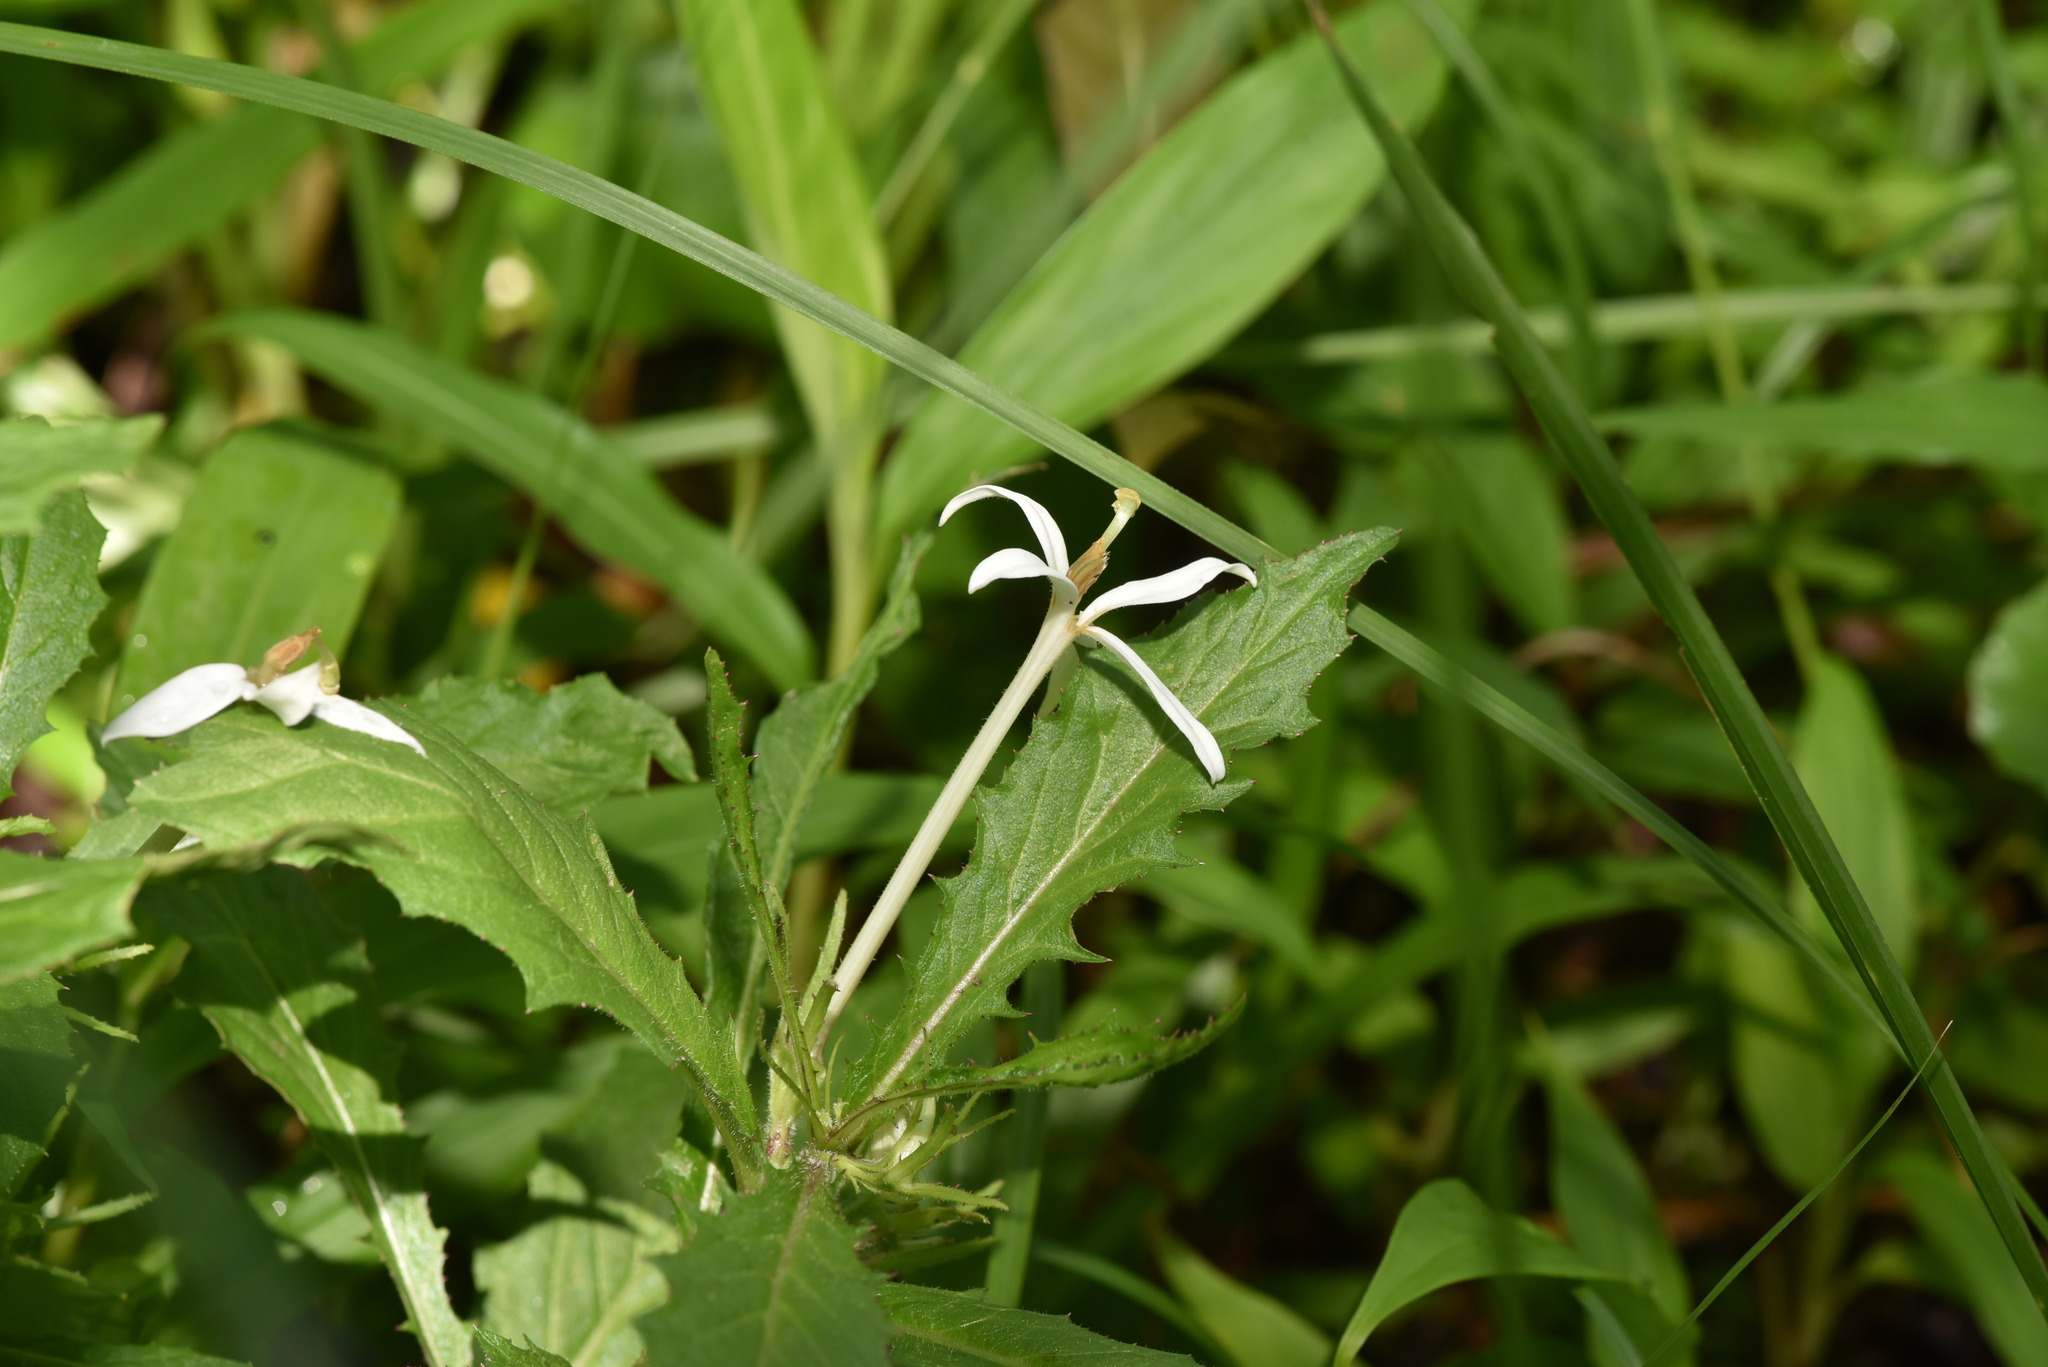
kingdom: Plantae
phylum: Tracheophyta
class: Magnoliopsida
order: Asterales
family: Campanulaceae
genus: Hippobroma
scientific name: Hippobroma longiflora
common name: Madamfate
